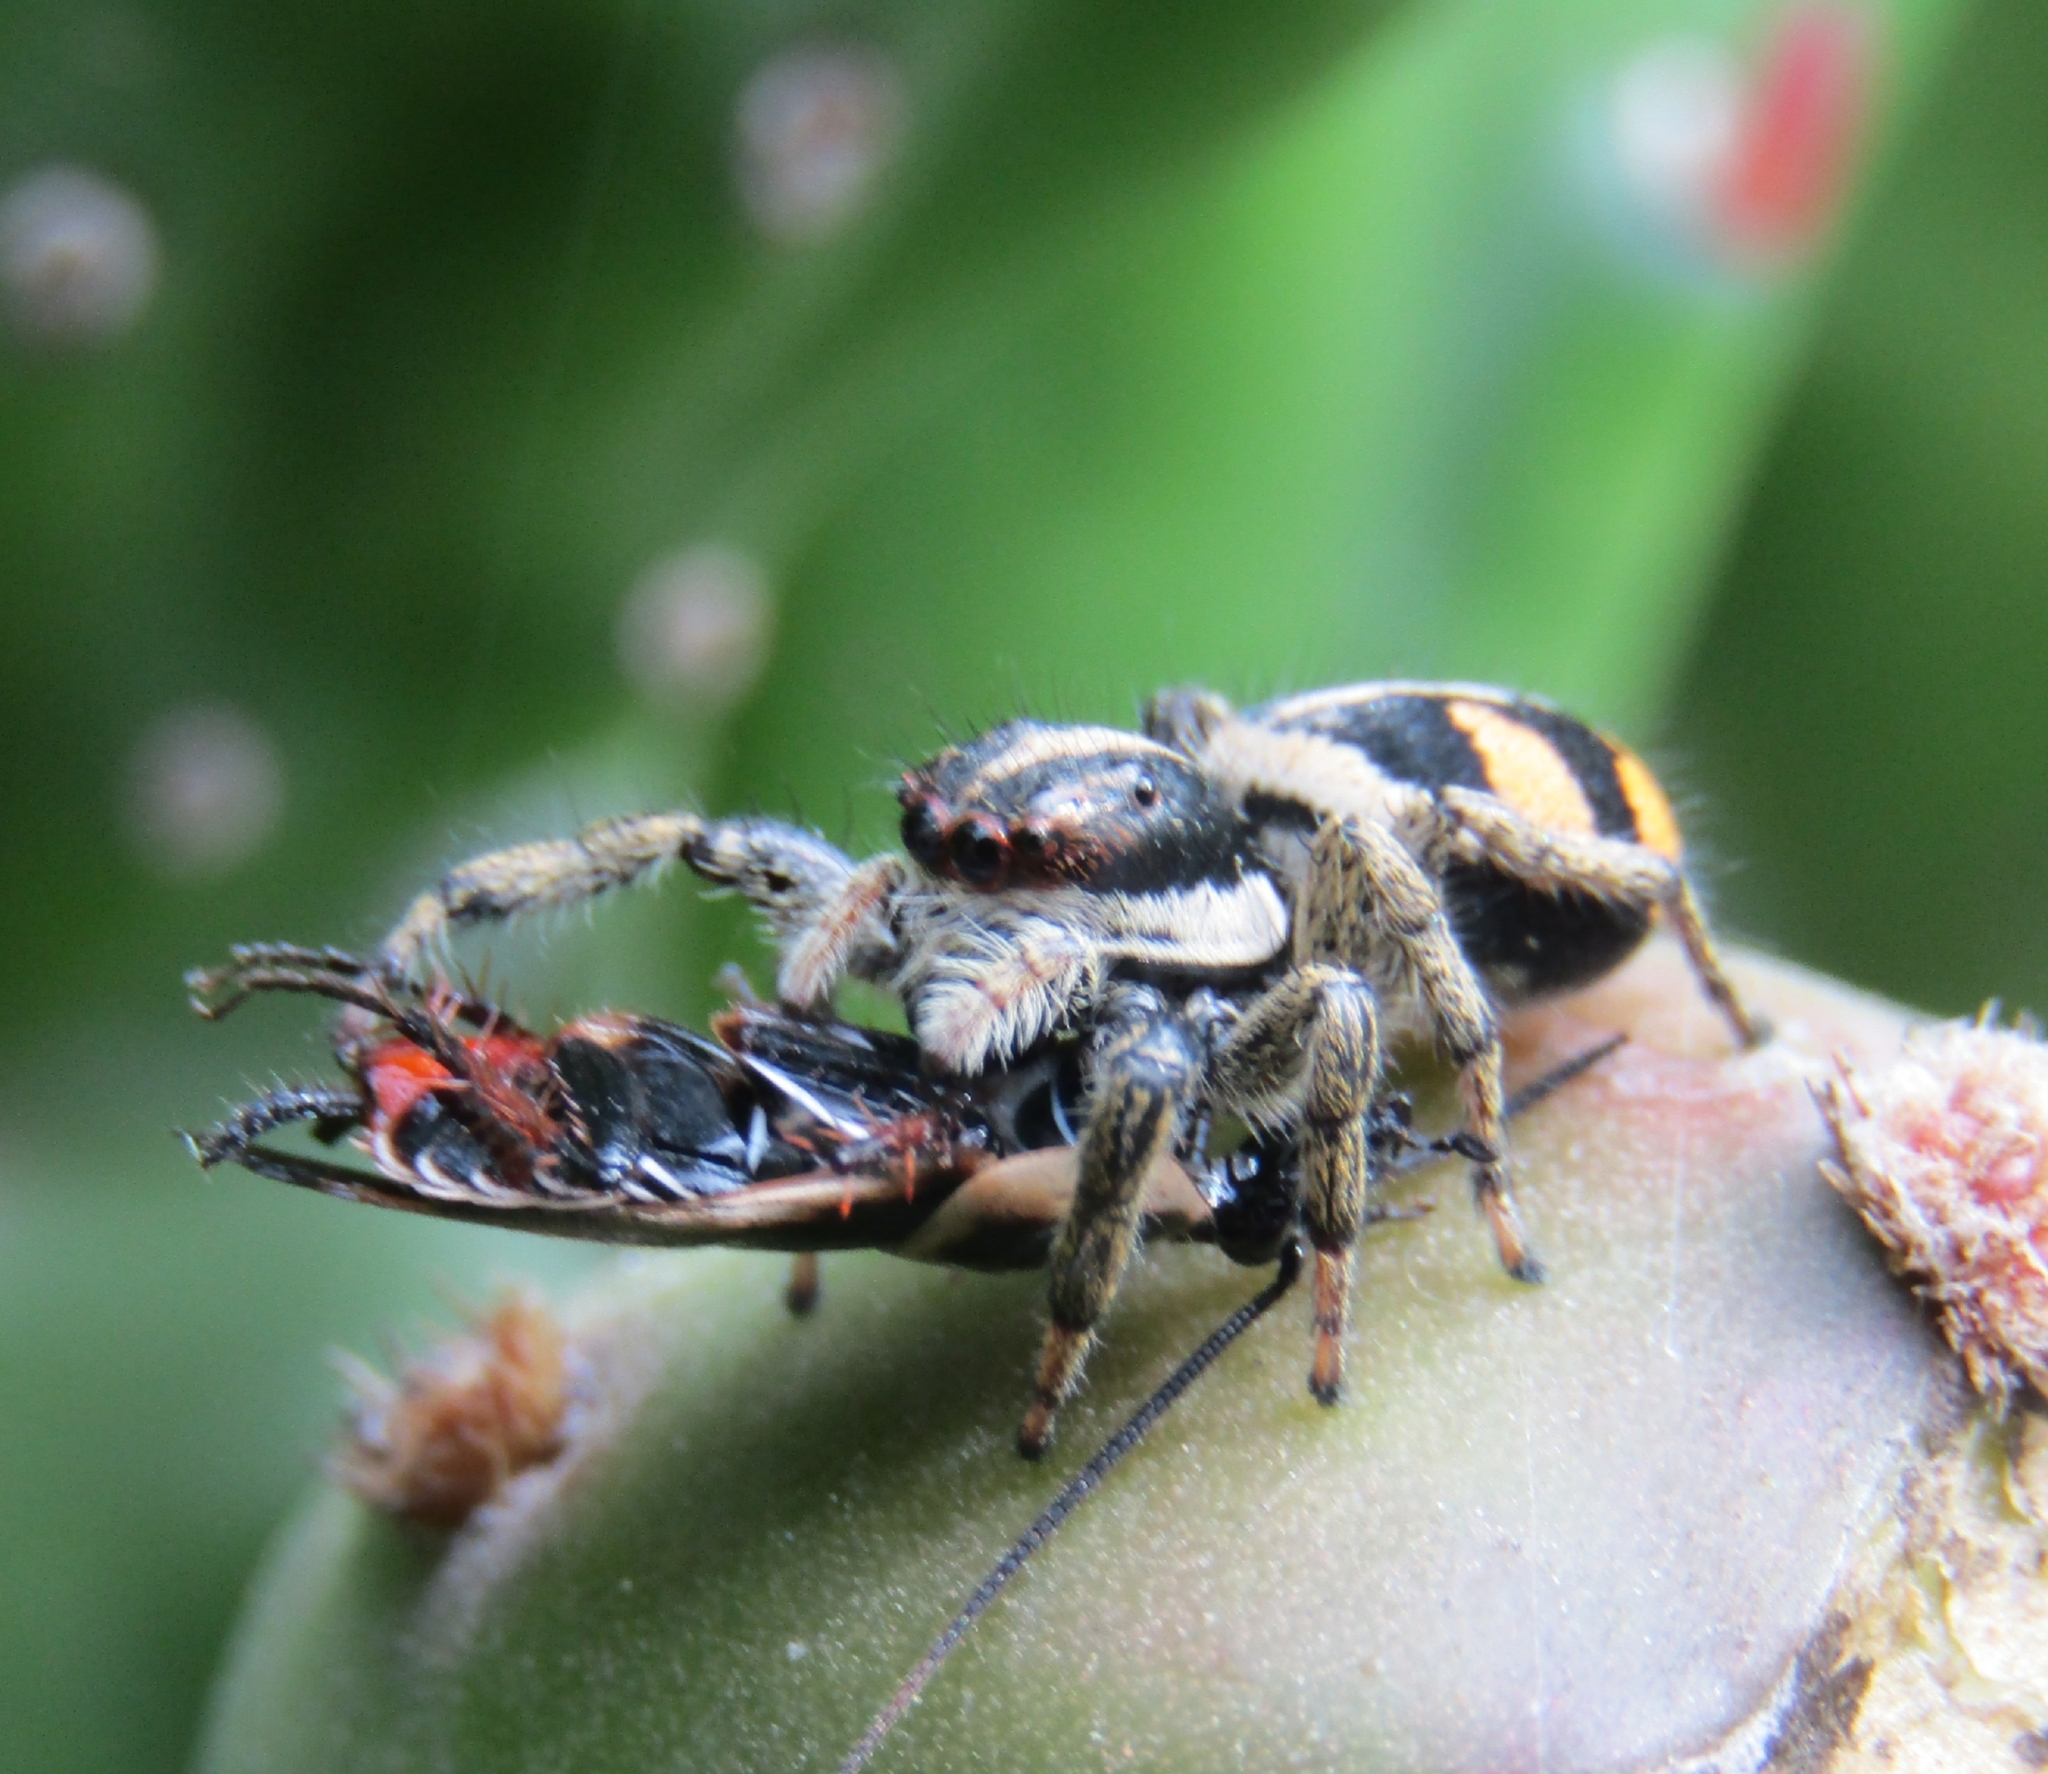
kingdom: Animalia
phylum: Arthropoda
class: Arachnida
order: Araneae
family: Salticidae
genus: Phiale
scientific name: Phiale roburifoliata
